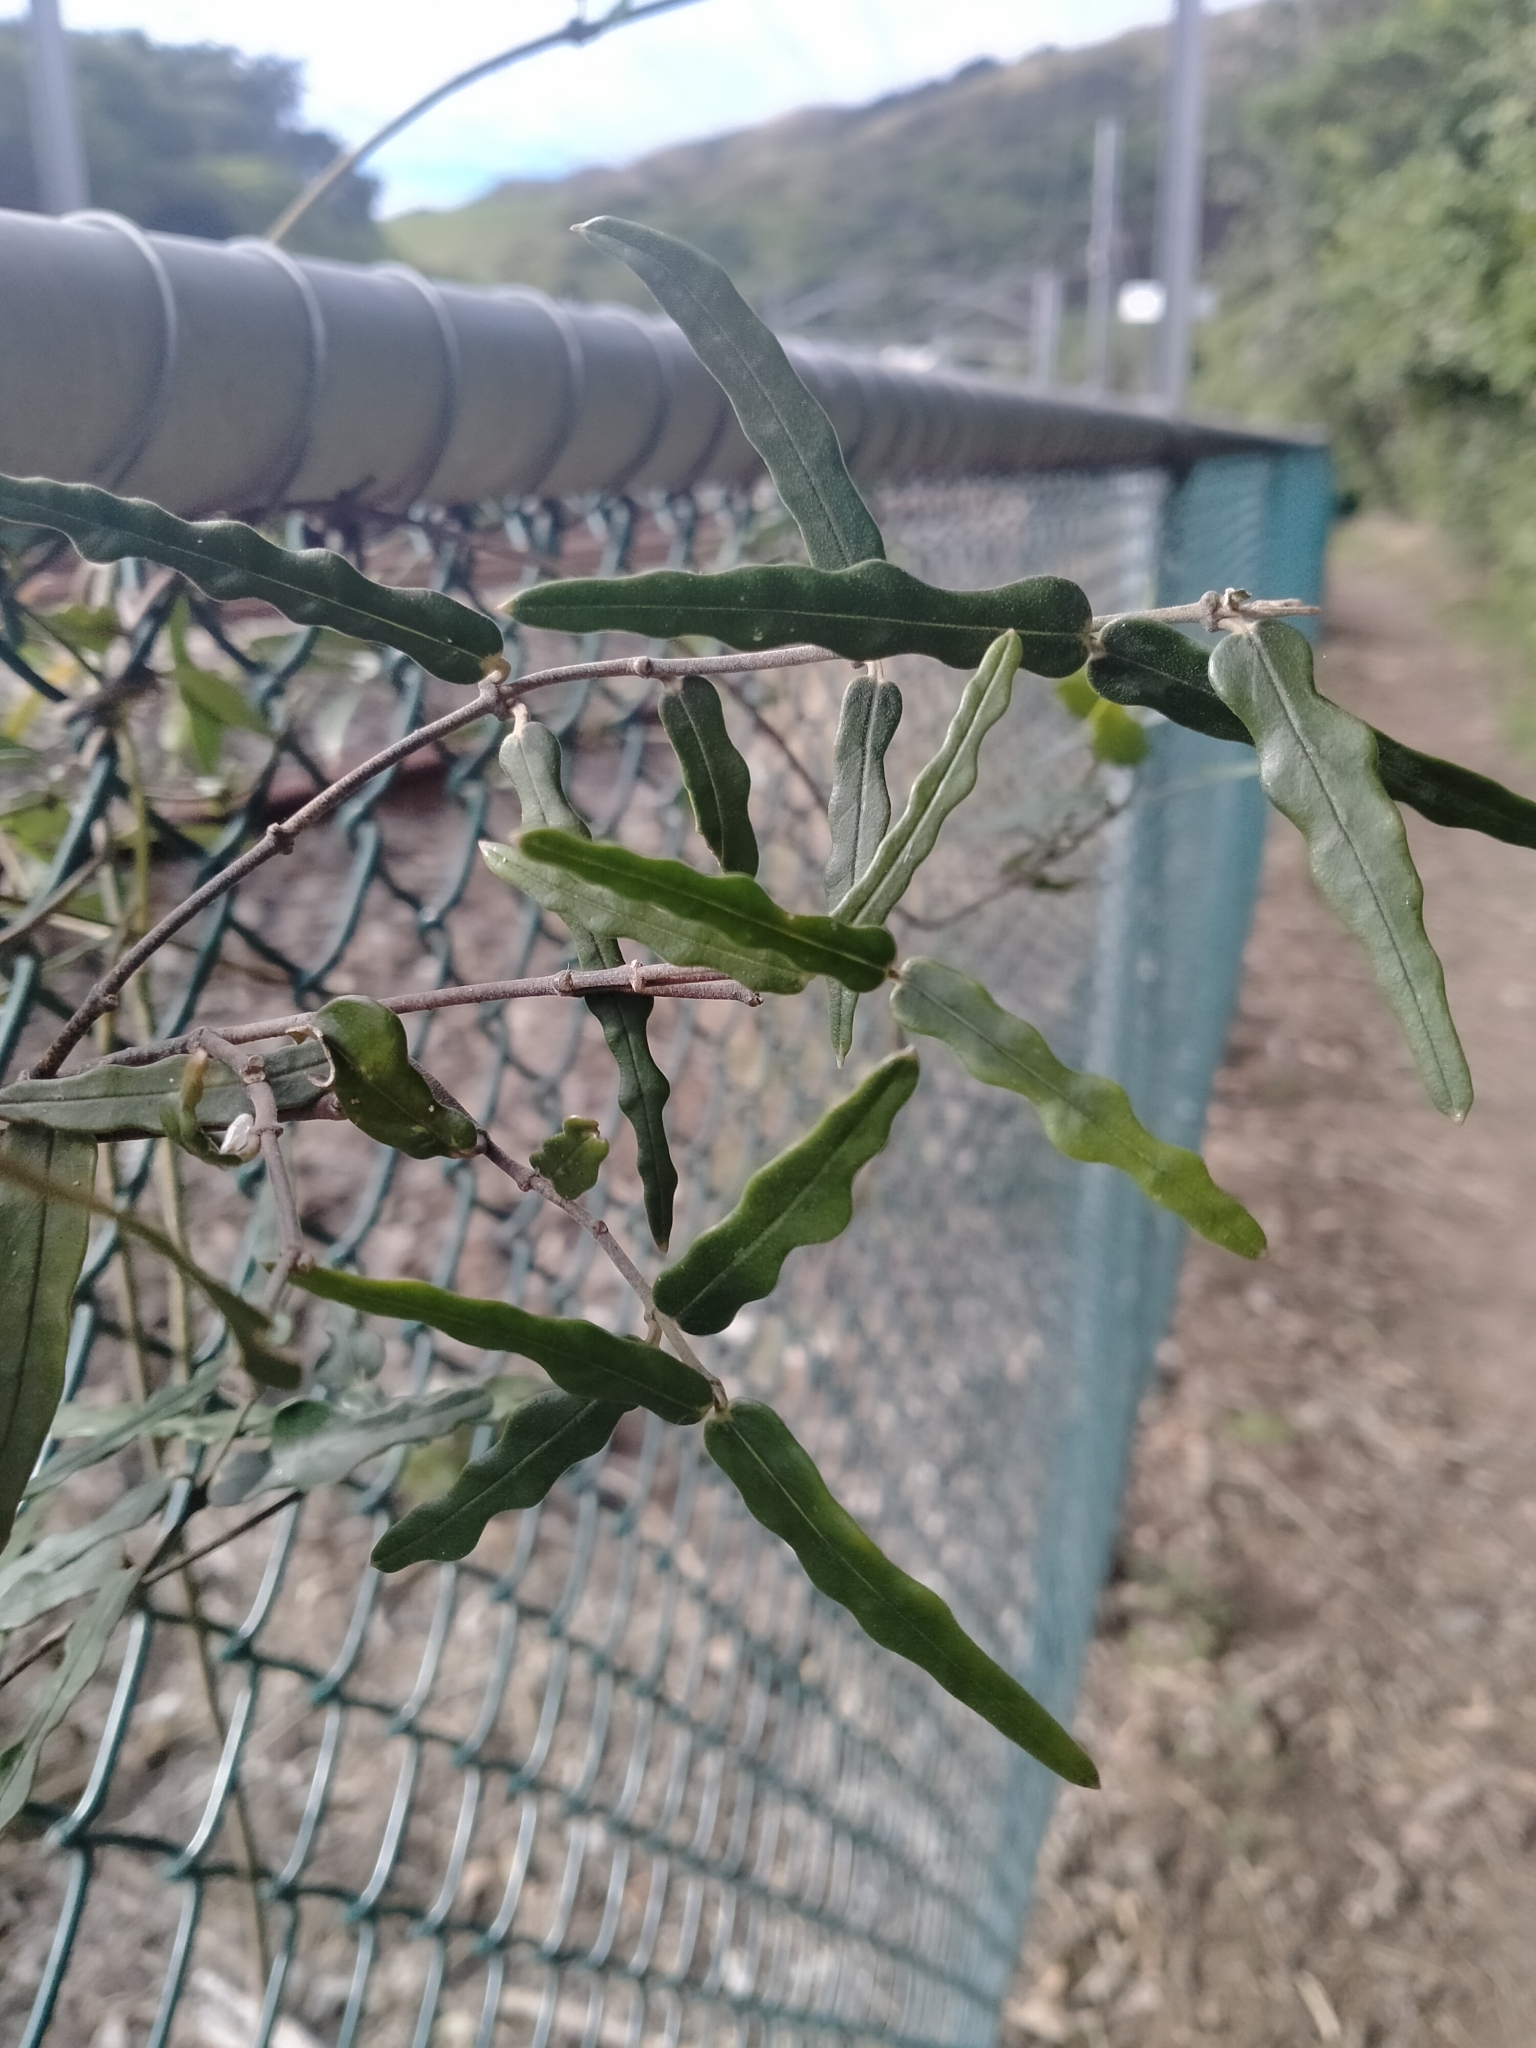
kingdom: Plantae
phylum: Tracheophyta
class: Magnoliopsida
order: Gentianales
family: Apocynaceae
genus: Parsonsia
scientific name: Parsonsia heterophylla
